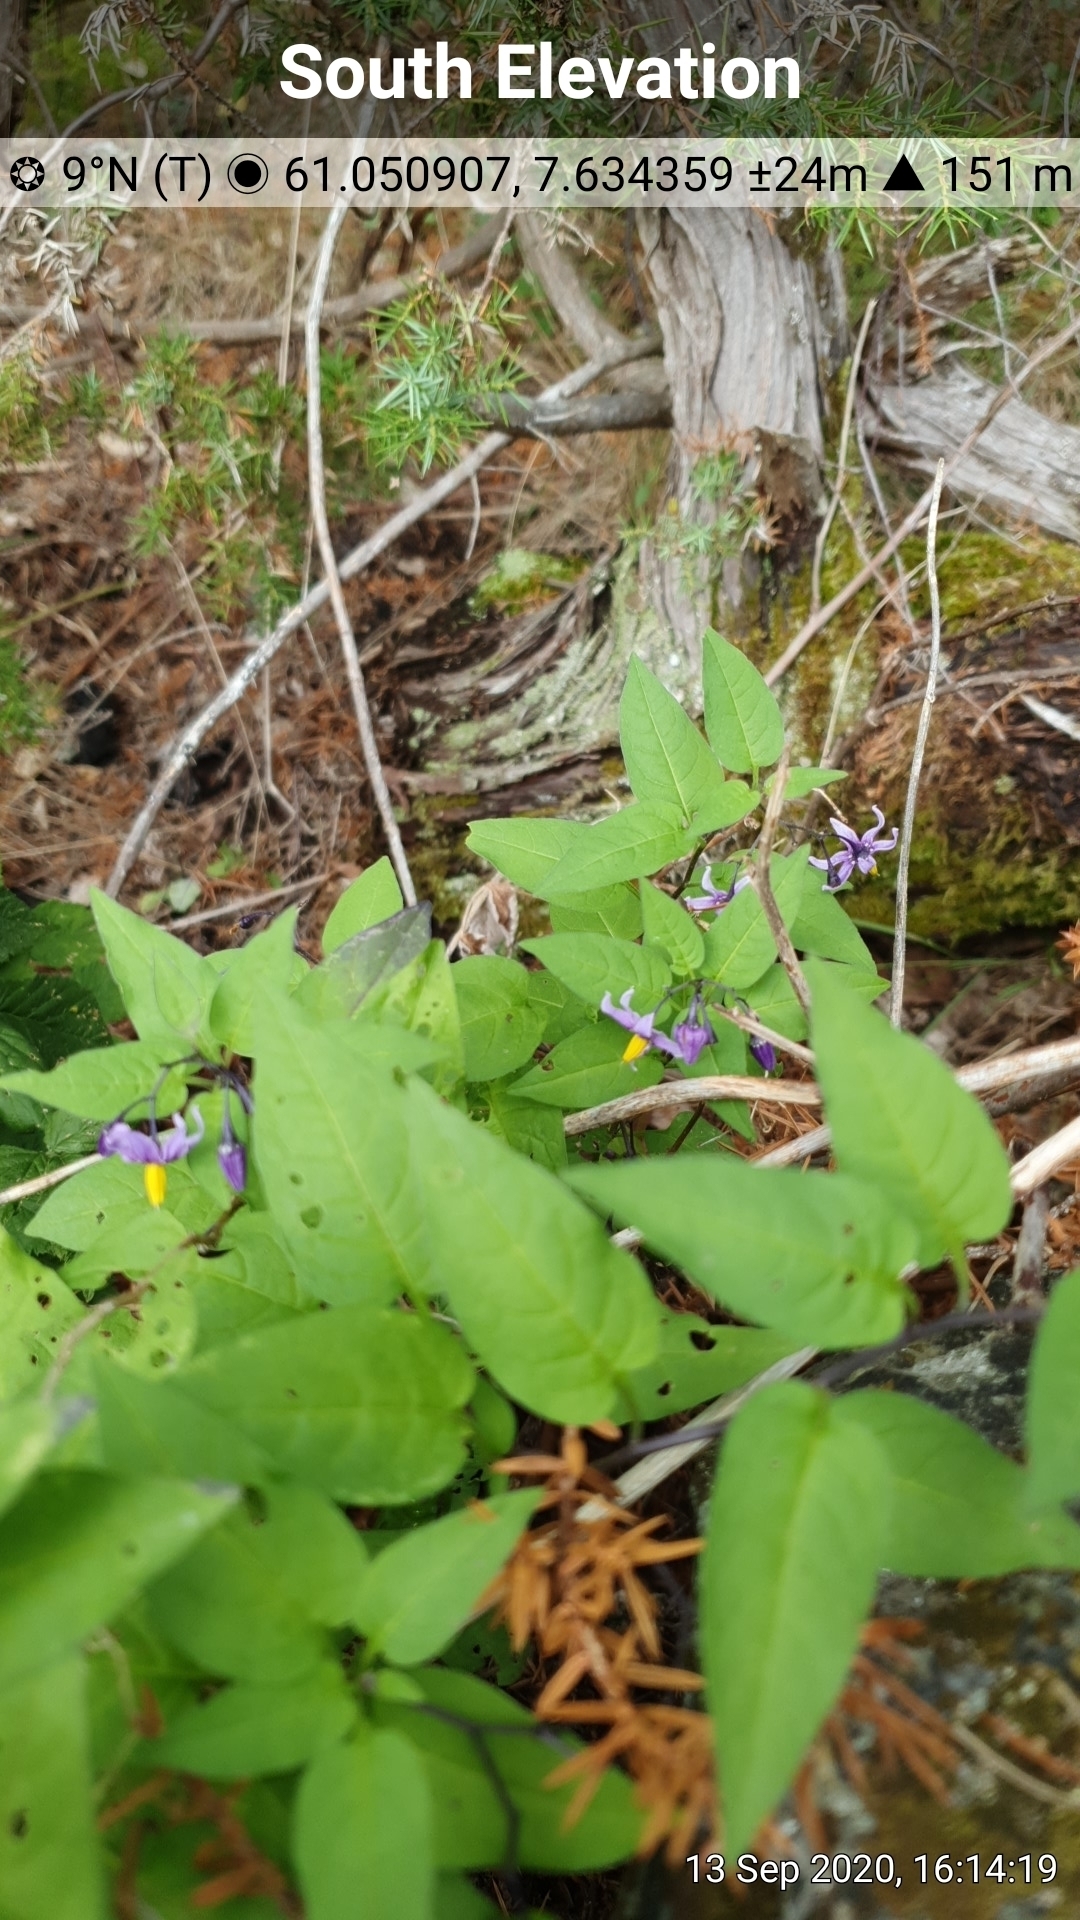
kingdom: Plantae
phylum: Tracheophyta
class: Magnoliopsida
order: Solanales
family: Solanaceae
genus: Solanum
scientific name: Solanum dulcamara
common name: Climbing nightshade
